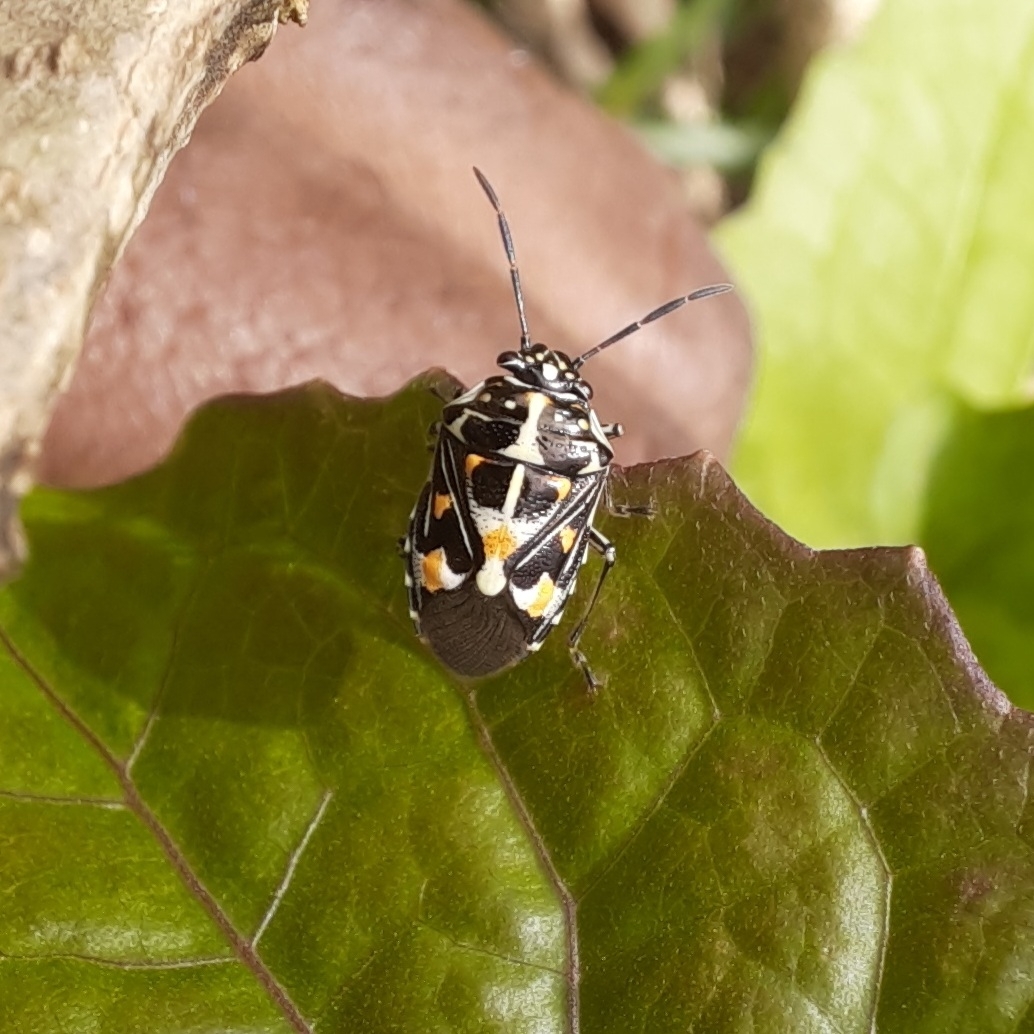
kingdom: Animalia
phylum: Arthropoda
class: Insecta
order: Hemiptera
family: Pentatomidae
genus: Bagrada
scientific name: Bagrada hilaris
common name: Bagrada bug
